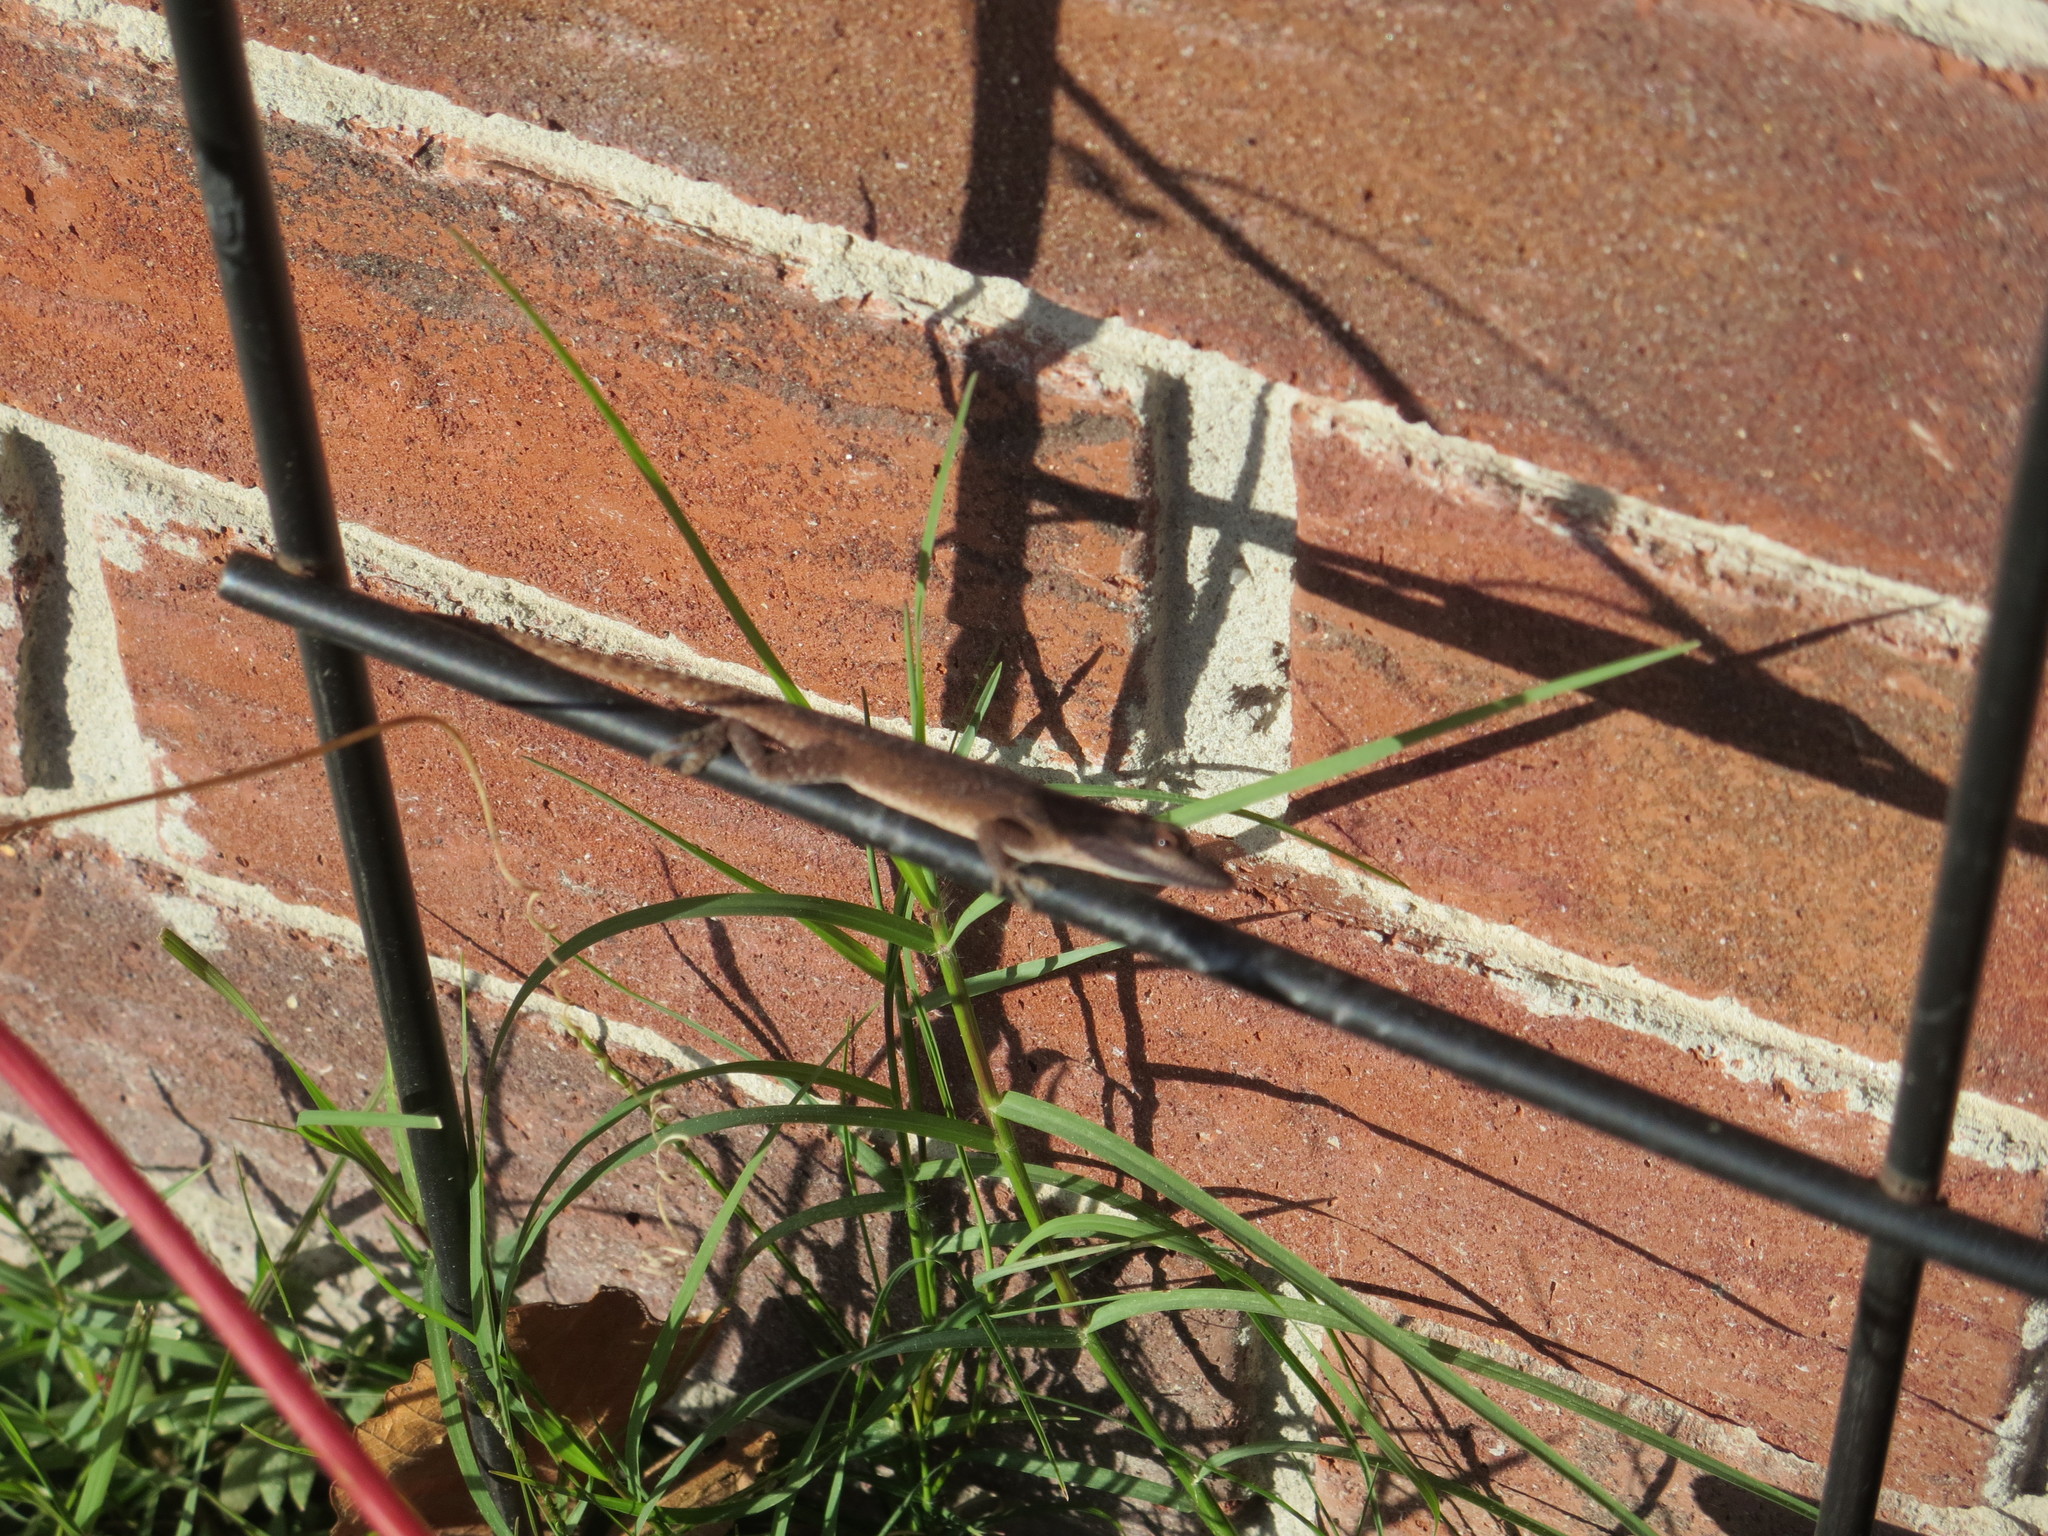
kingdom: Animalia
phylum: Chordata
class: Squamata
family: Dactyloidae
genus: Anolis
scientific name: Anolis carolinensis
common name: Green anole
